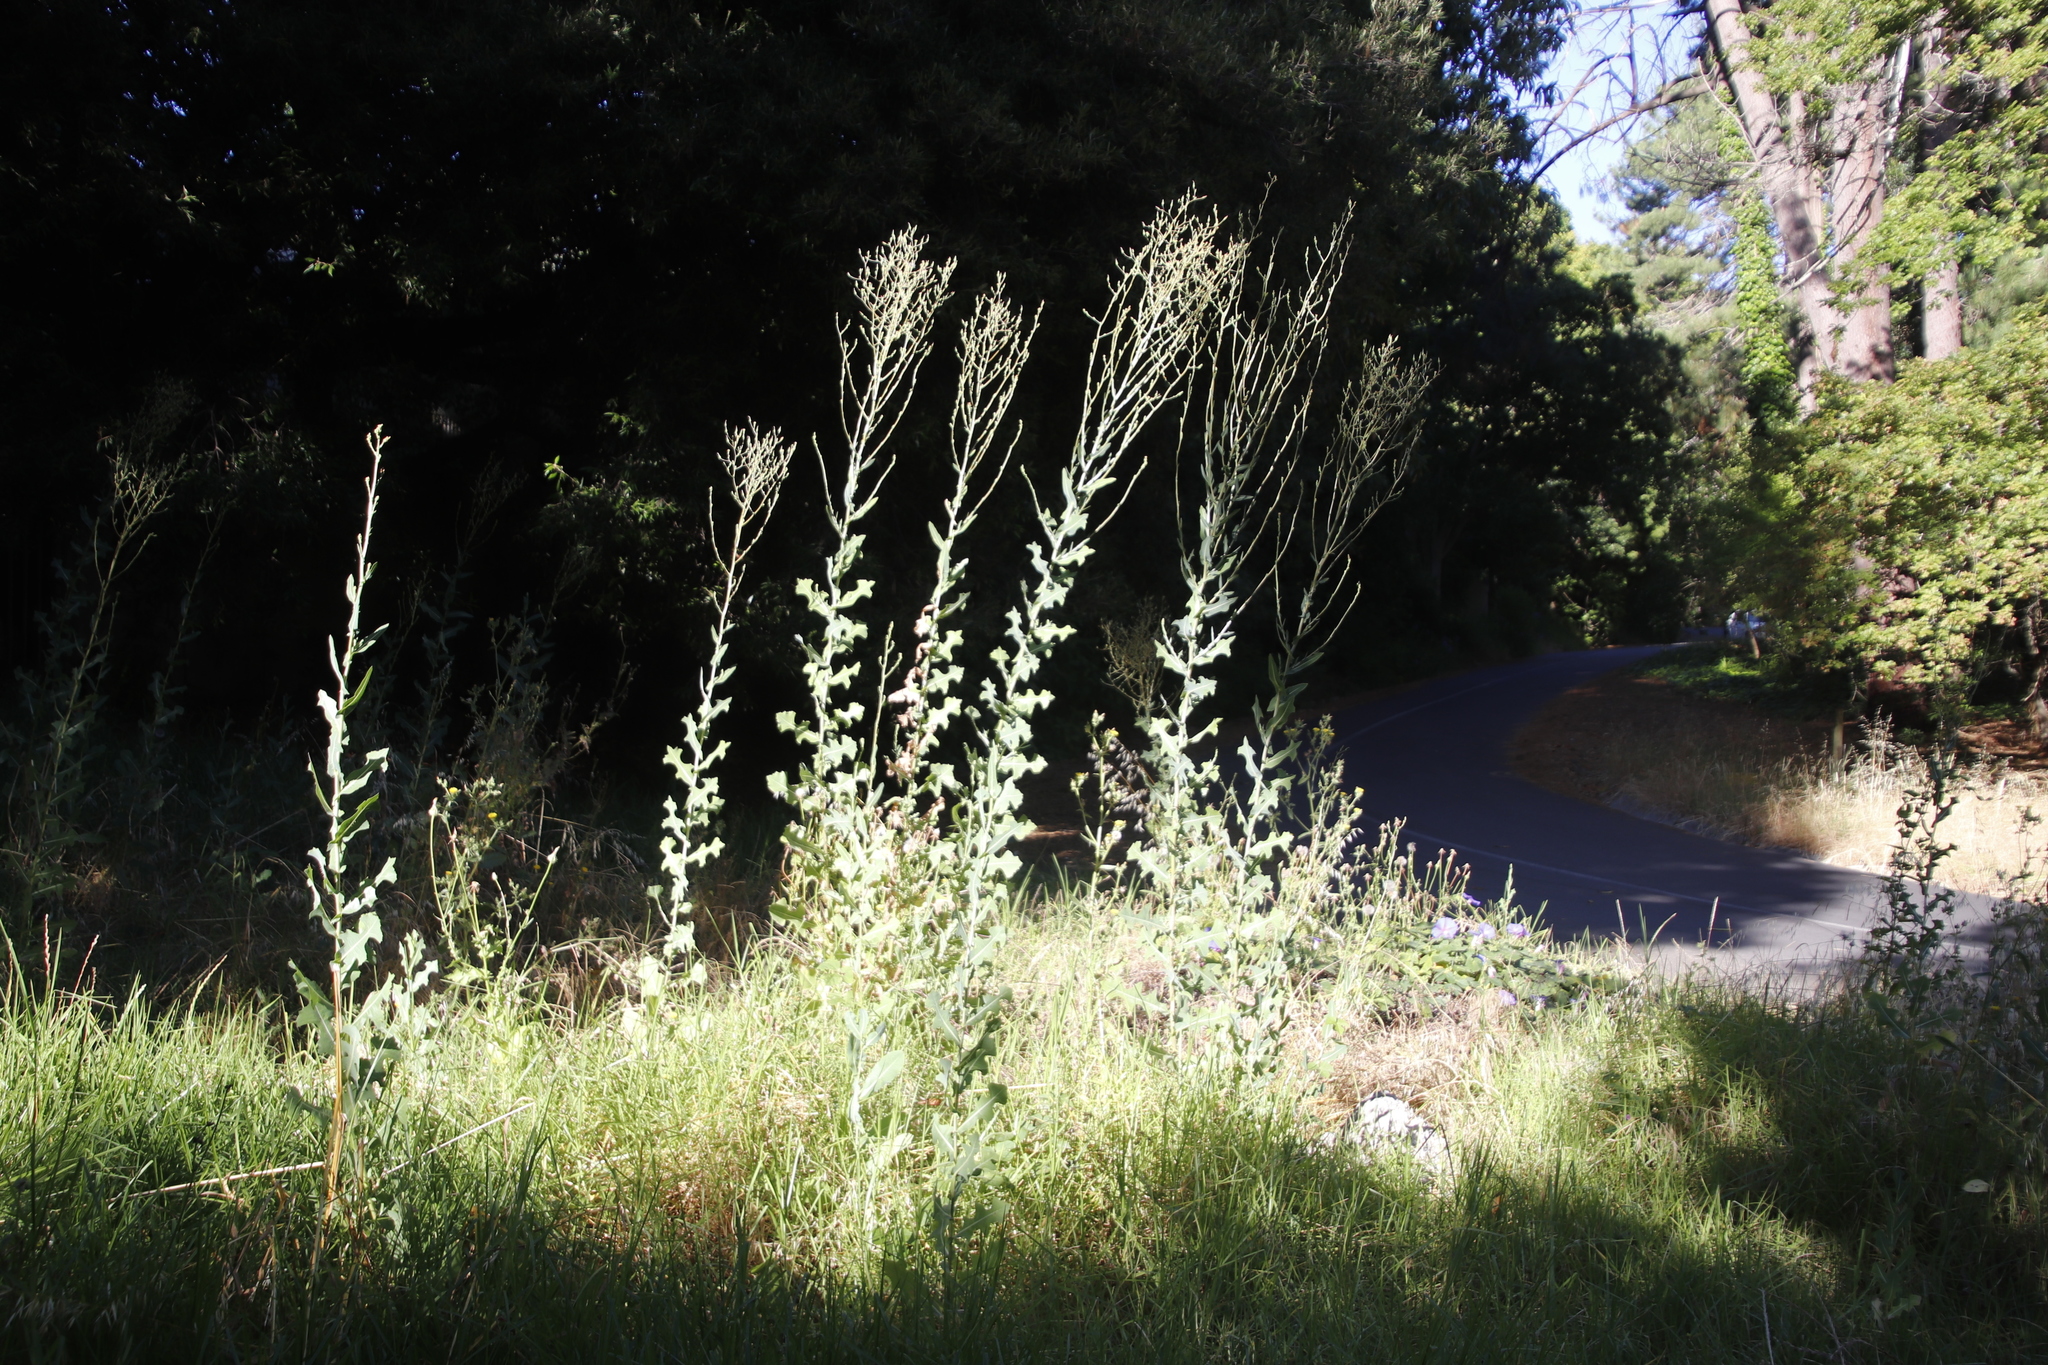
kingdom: Plantae
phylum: Tracheophyta
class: Magnoliopsida
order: Asterales
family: Asteraceae
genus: Lactuca
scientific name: Lactuca serriola
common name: Prickly lettuce
